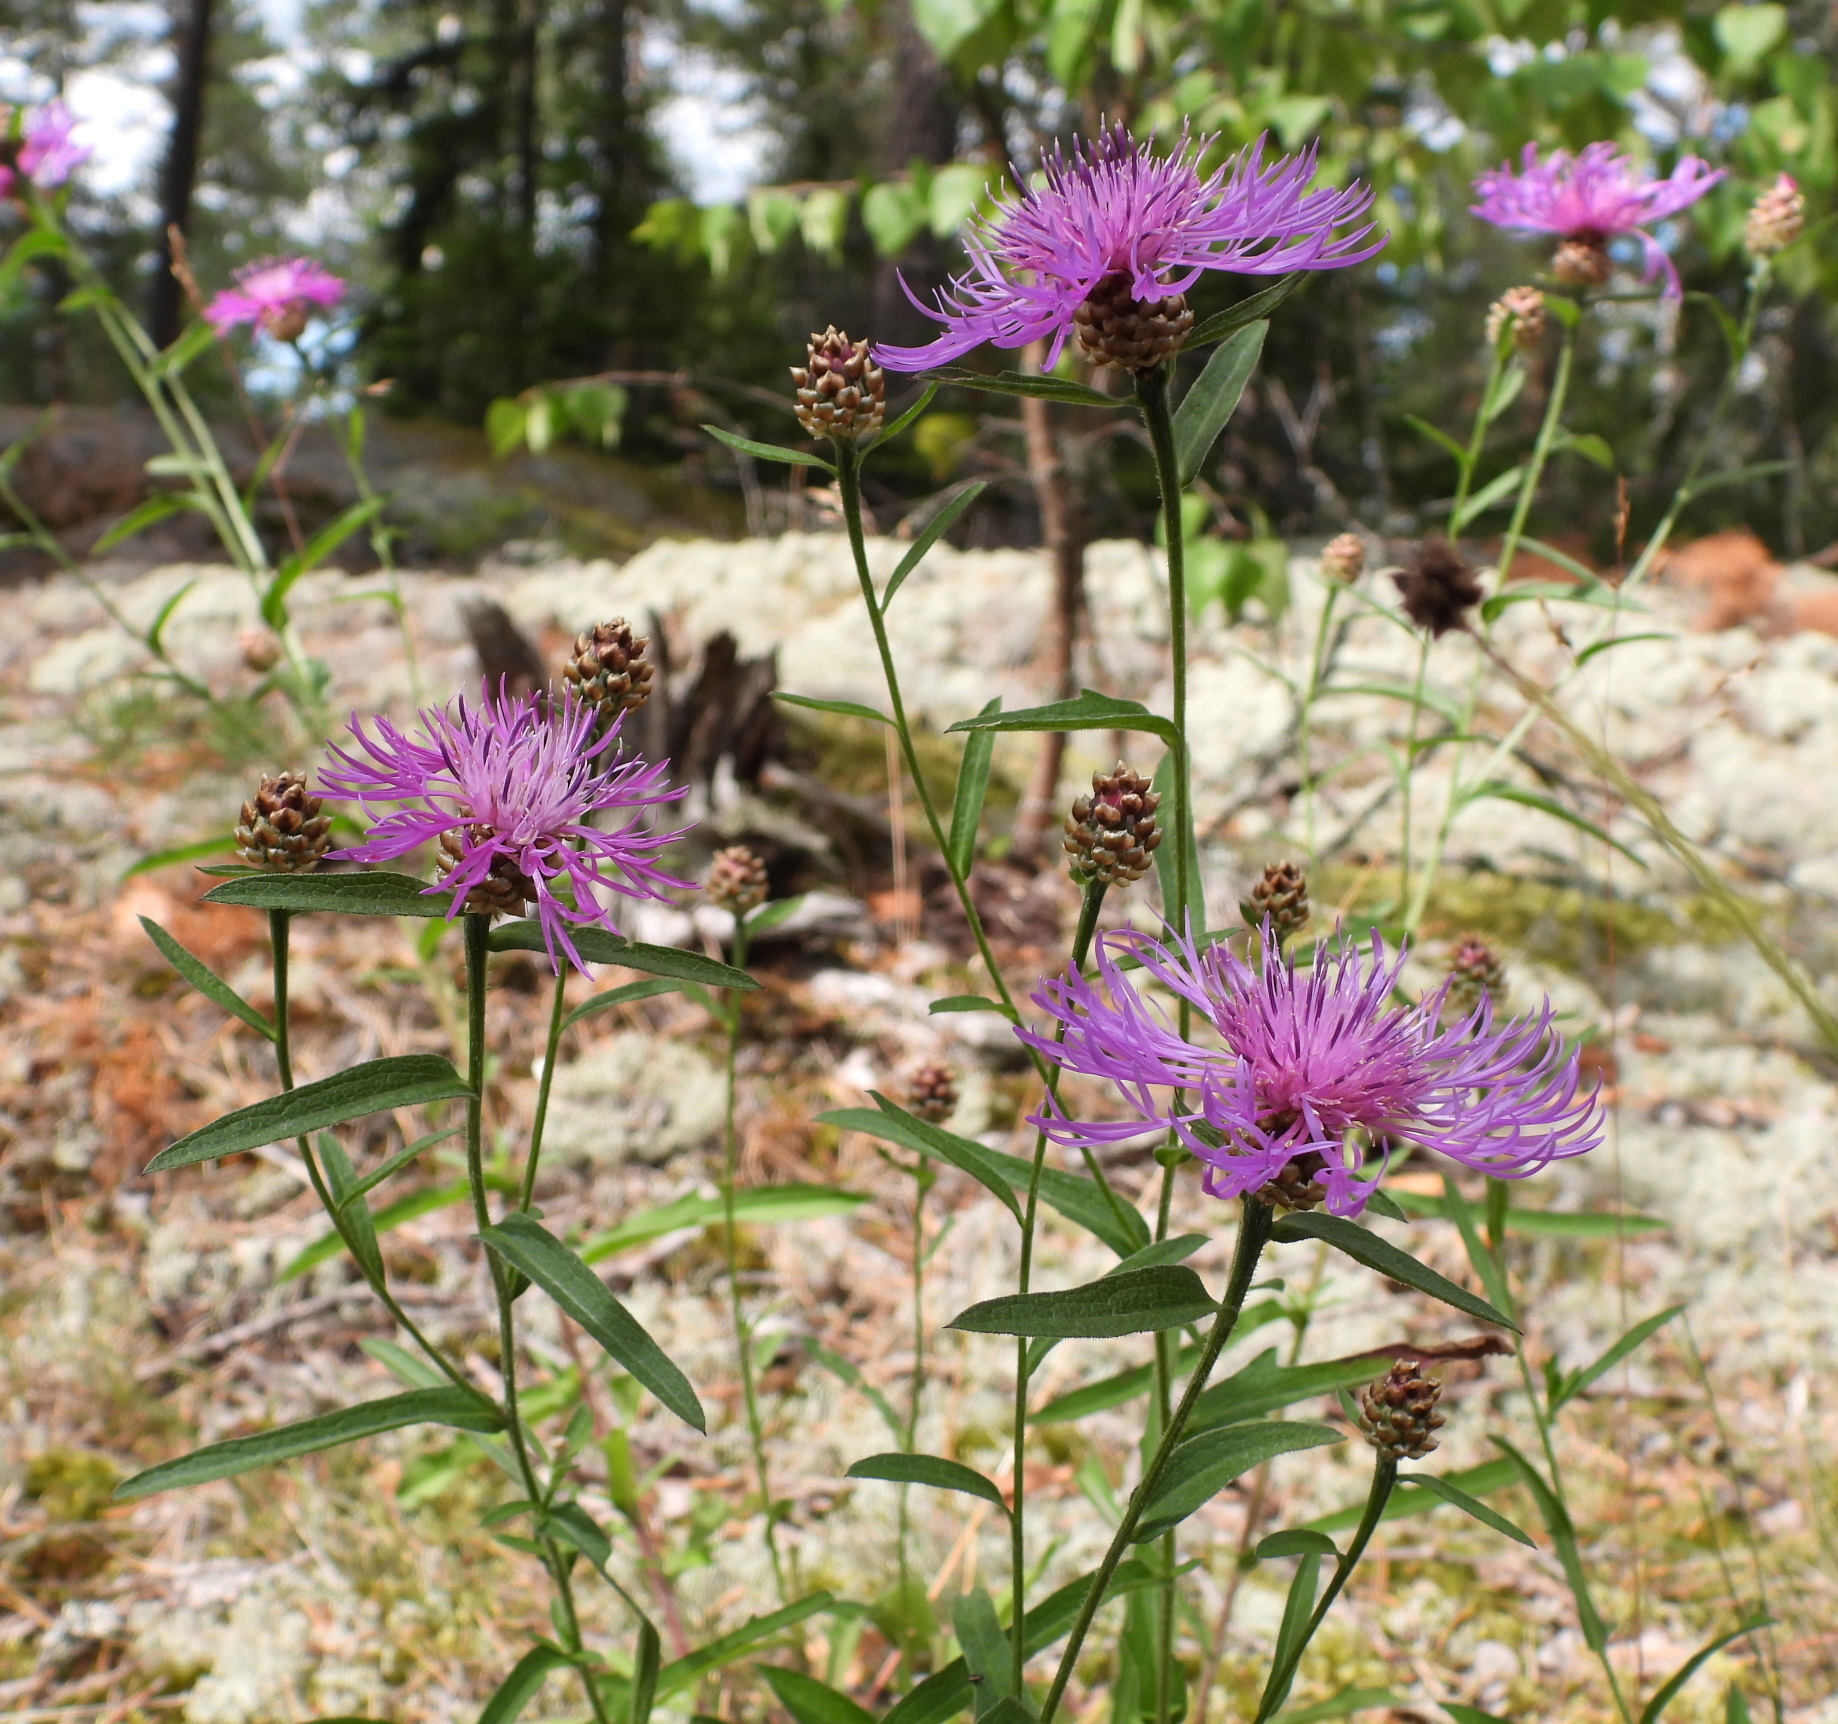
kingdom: Plantae
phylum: Tracheophyta
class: Magnoliopsida
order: Asterales
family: Asteraceae
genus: Centaurea
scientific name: Centaurea jacea
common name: Brown knapweed
